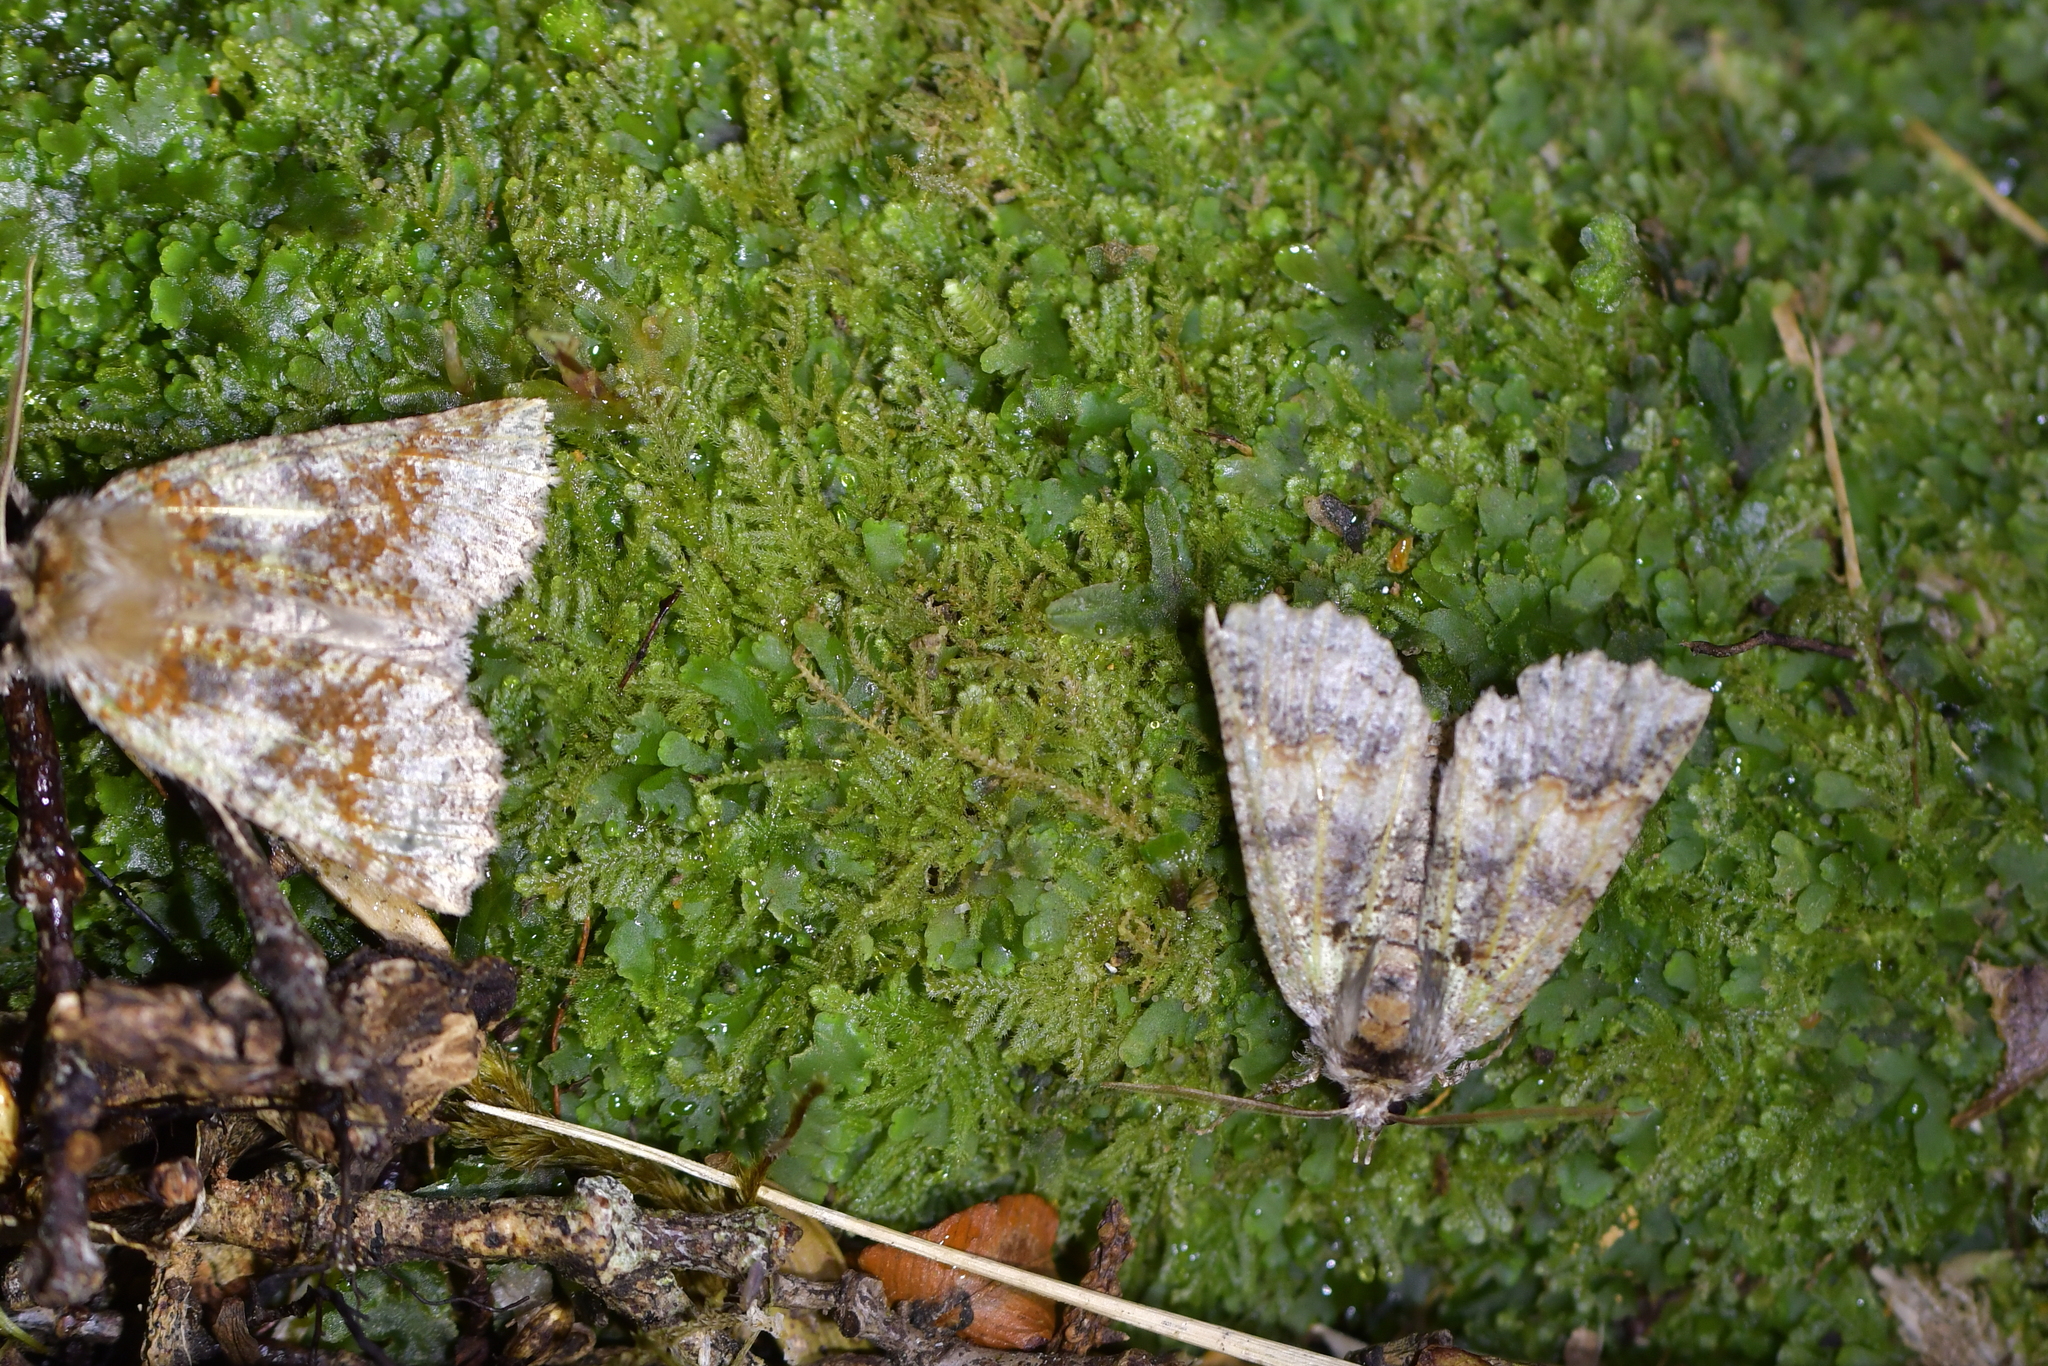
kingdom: Animalia
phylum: Arthropoda
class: Insecta
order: Lepidoptera
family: Geometridae
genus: Declana
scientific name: Declana floccosa
